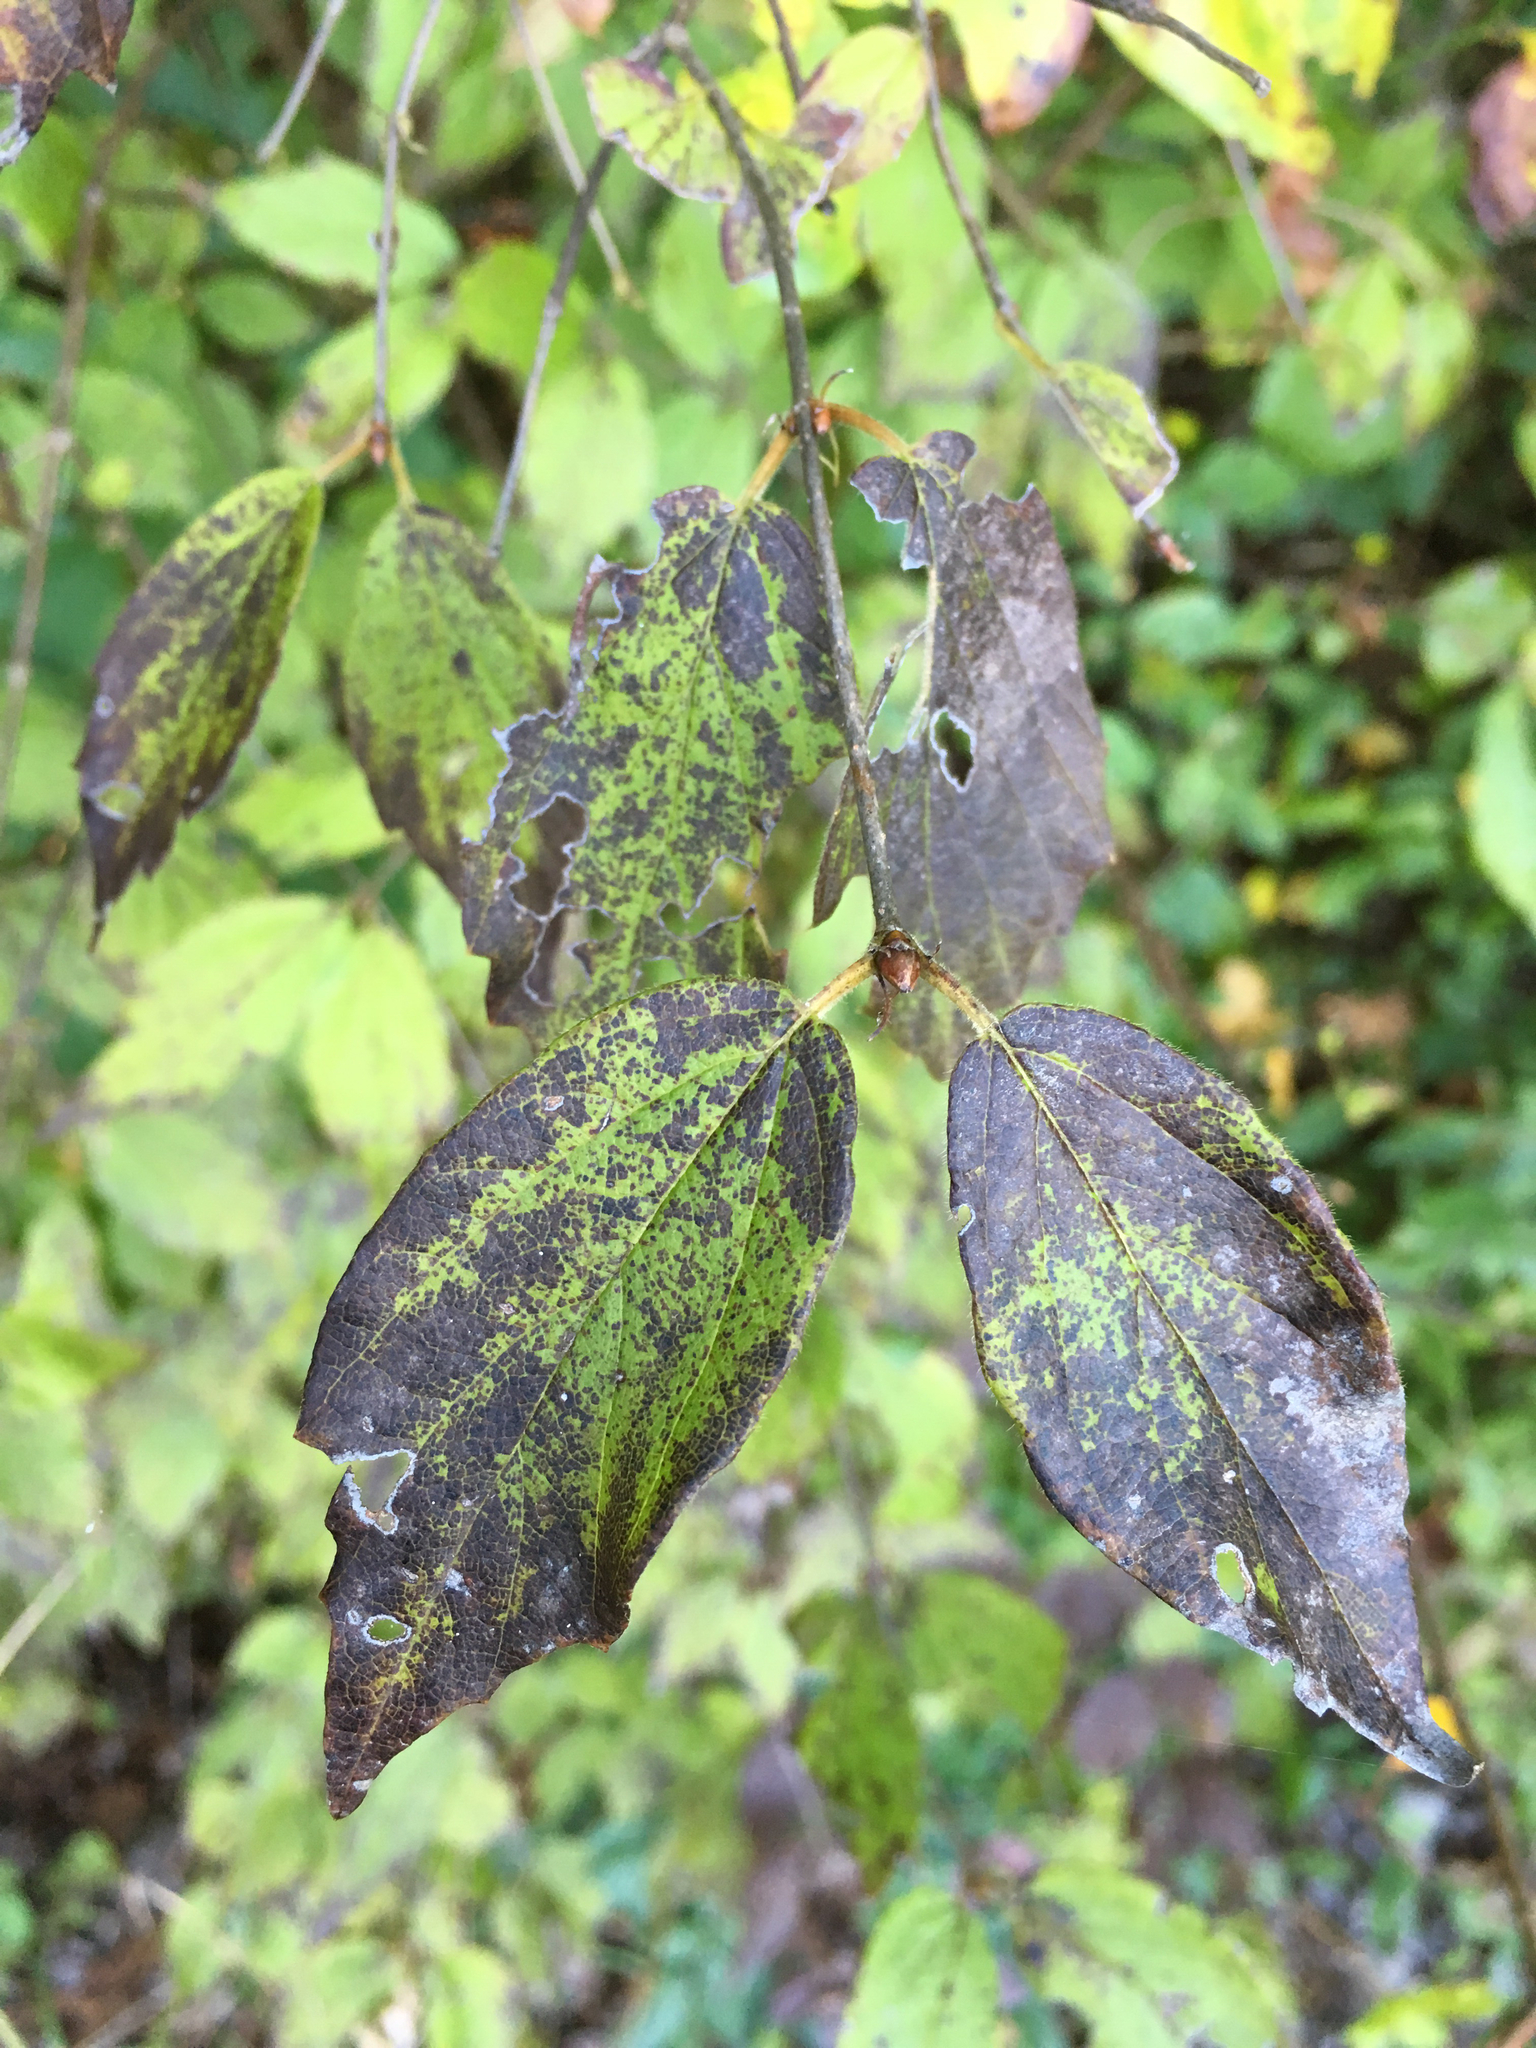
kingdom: Plantae
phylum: Tracheophyta
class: Magnoliopsida
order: Dipsacales
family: Viburnaceae
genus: Viburnum
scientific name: Viburnum rafinesqueanum
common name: Downy arrow-wood
